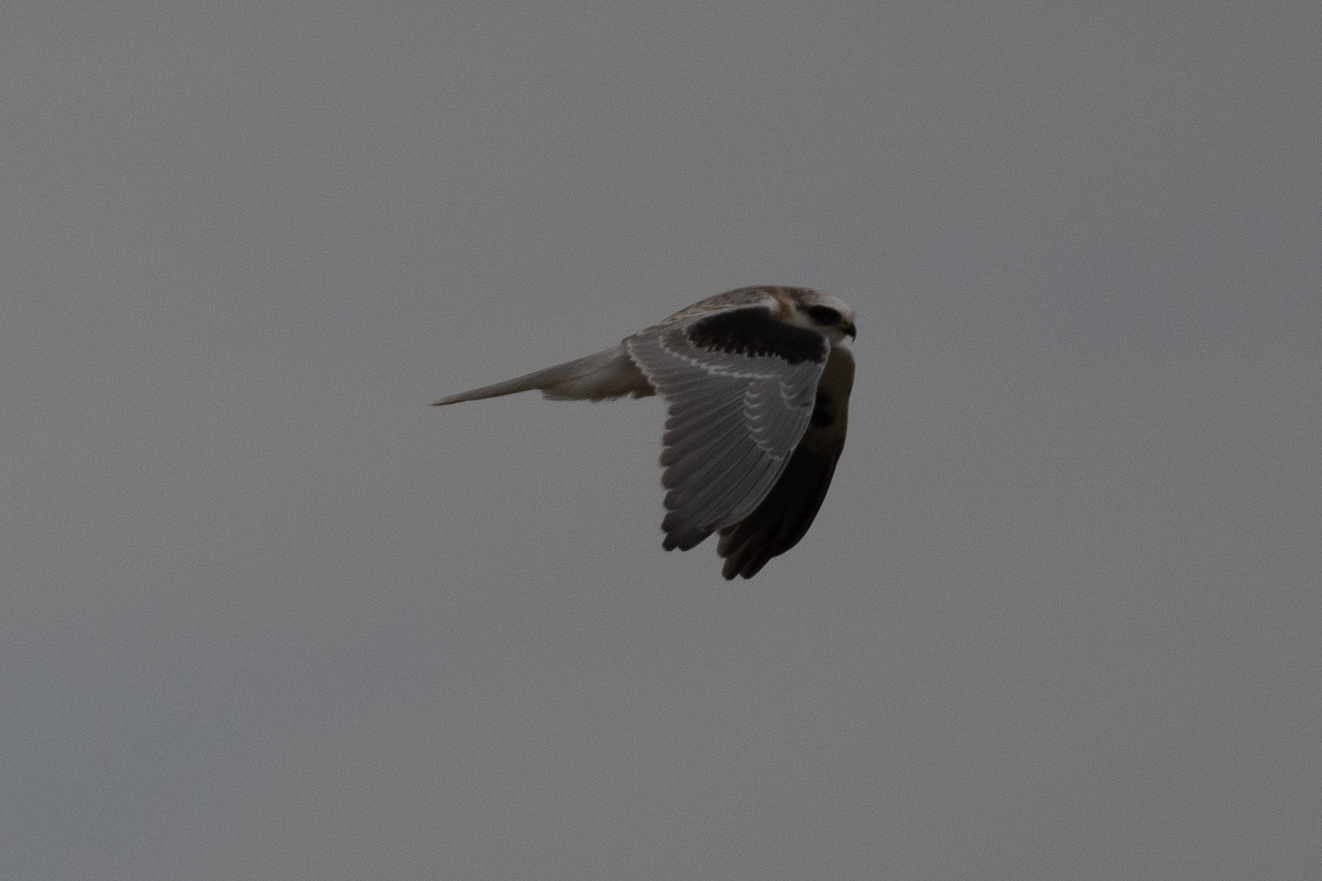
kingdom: Animalia
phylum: Chordata
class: Aves
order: Accipitriformes
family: Accipitridae
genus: Elanus
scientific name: Elanus leucurus
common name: White-tailed kite
